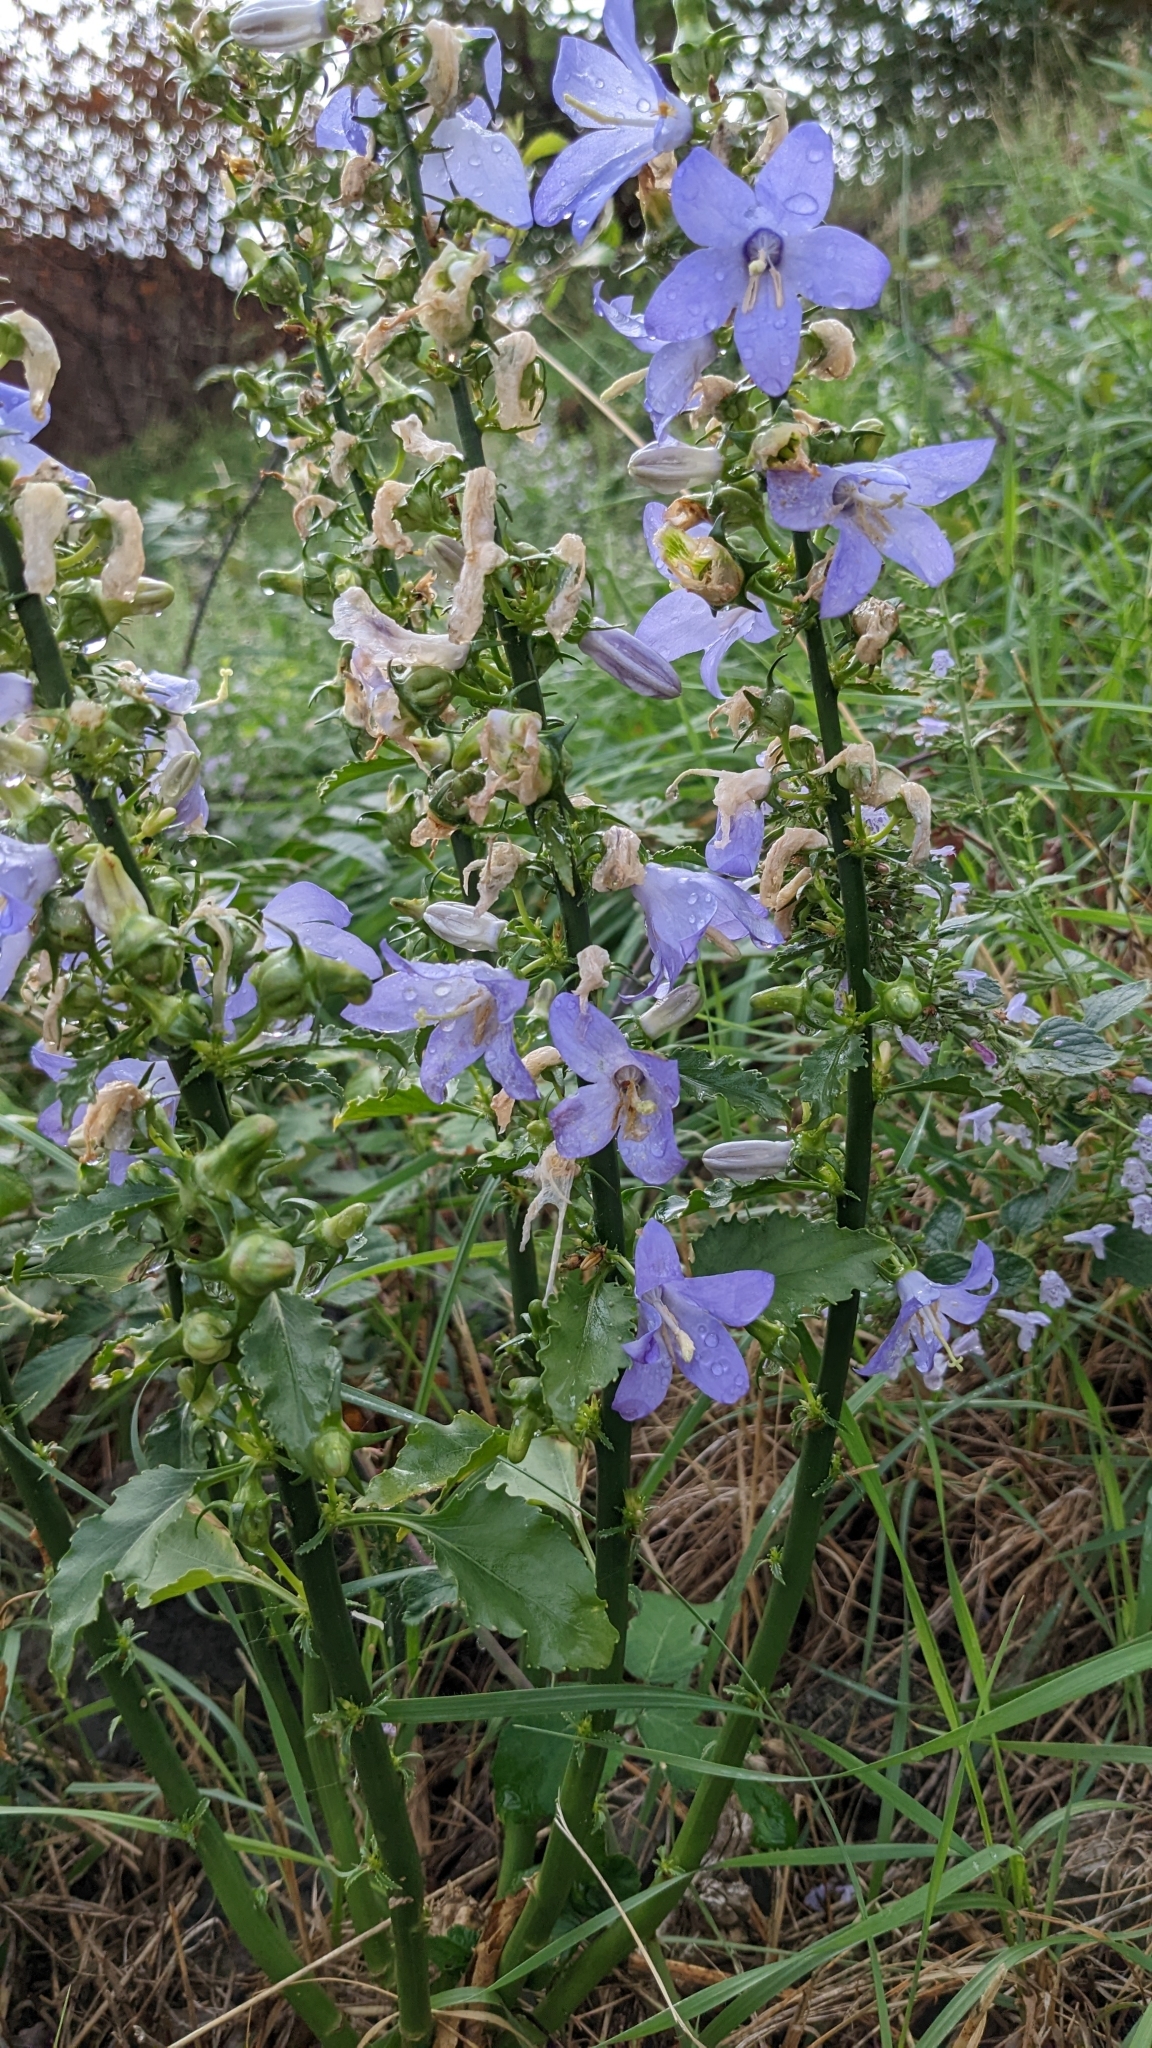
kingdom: Plantae
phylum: Tracheophyta
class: Magnoliopsida
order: Asterales
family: Campanulaceae
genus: Campanula
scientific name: Campanula pyramidalis
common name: Chimney bellflower
